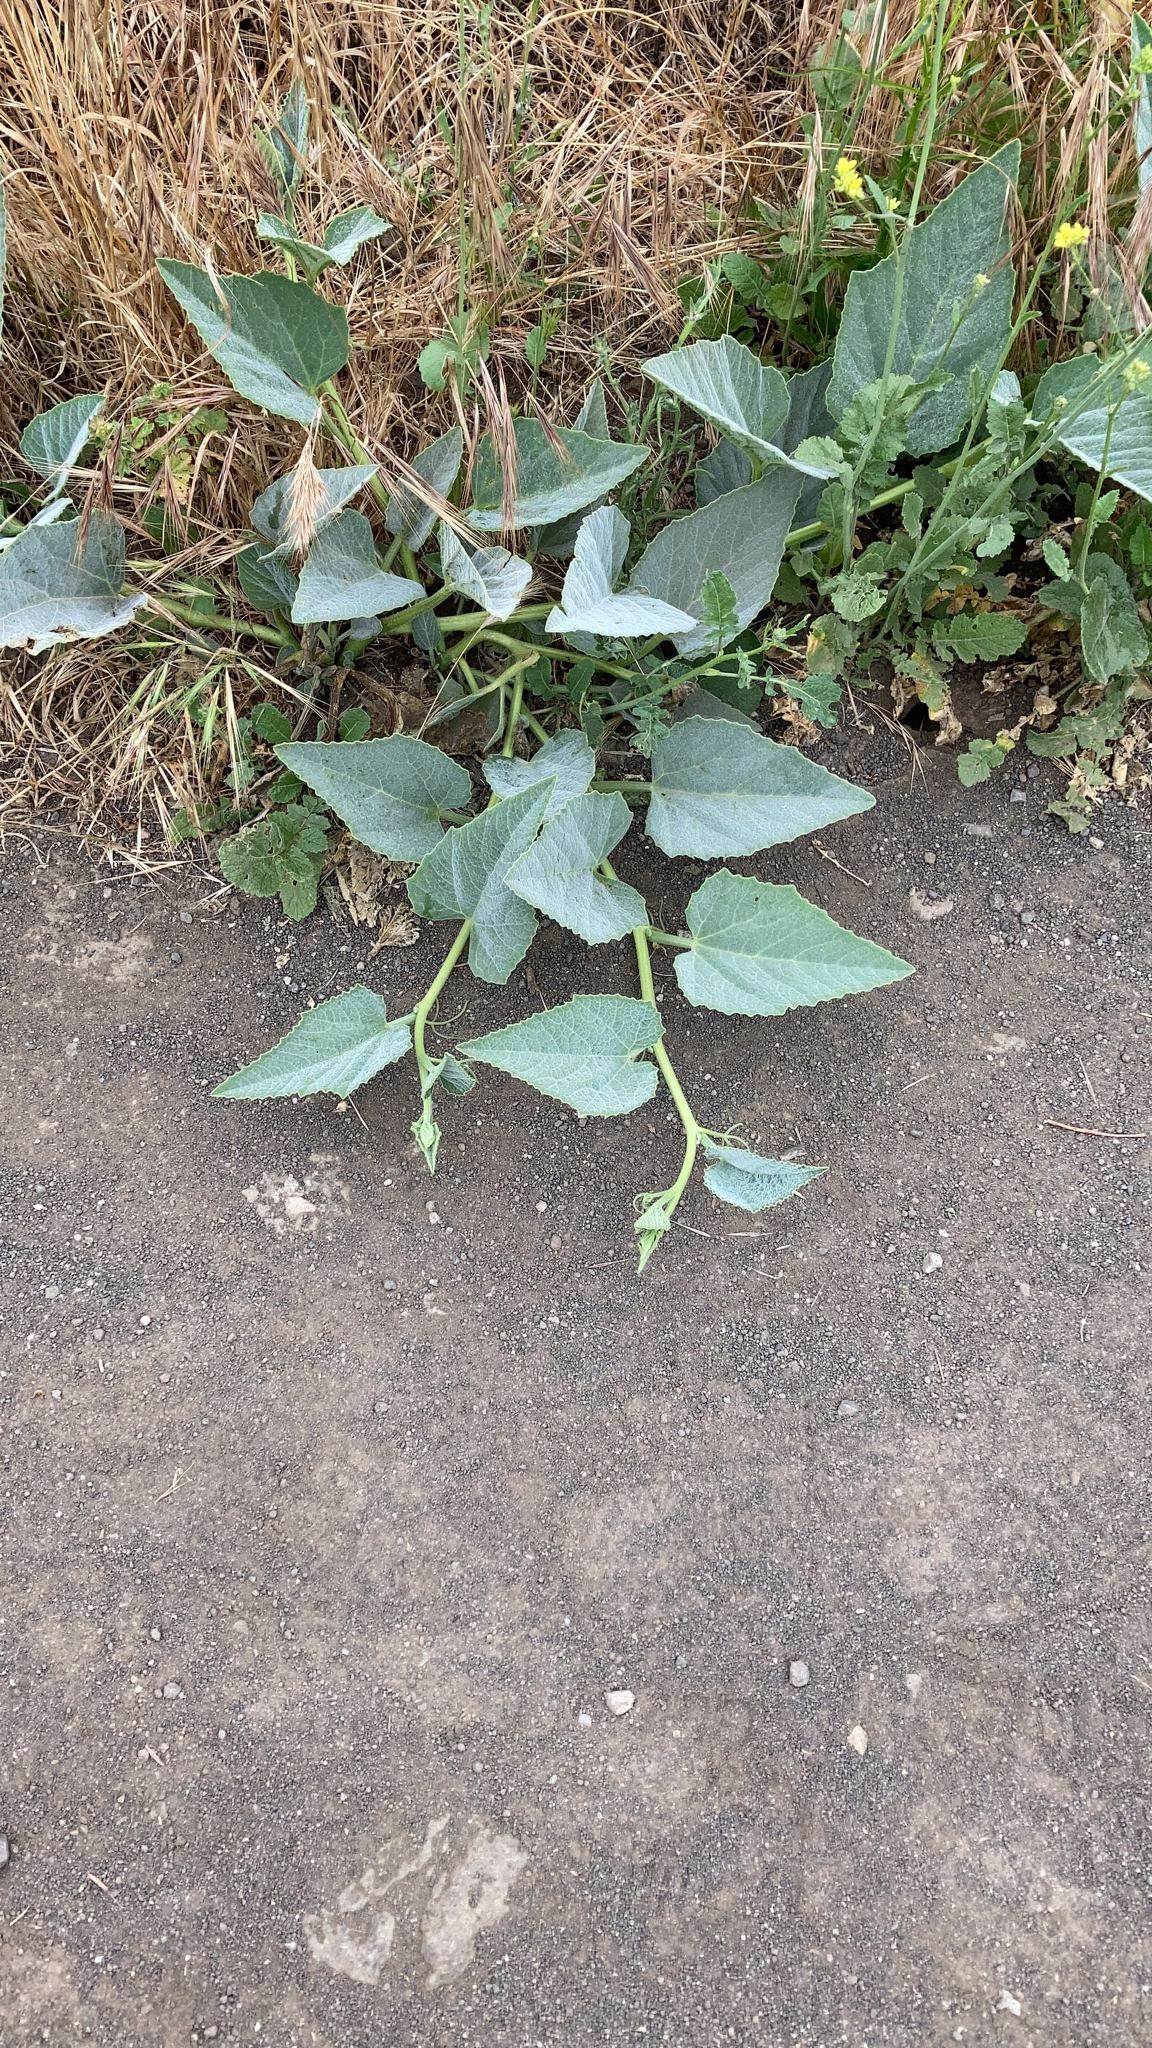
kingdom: Plantae
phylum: Tracheophyta
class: Magnoliopsida
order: Cucurbitales
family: Cucurbitaceae
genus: Cucurbita
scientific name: Cucurbita foetidissima
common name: Buffalo gourd
